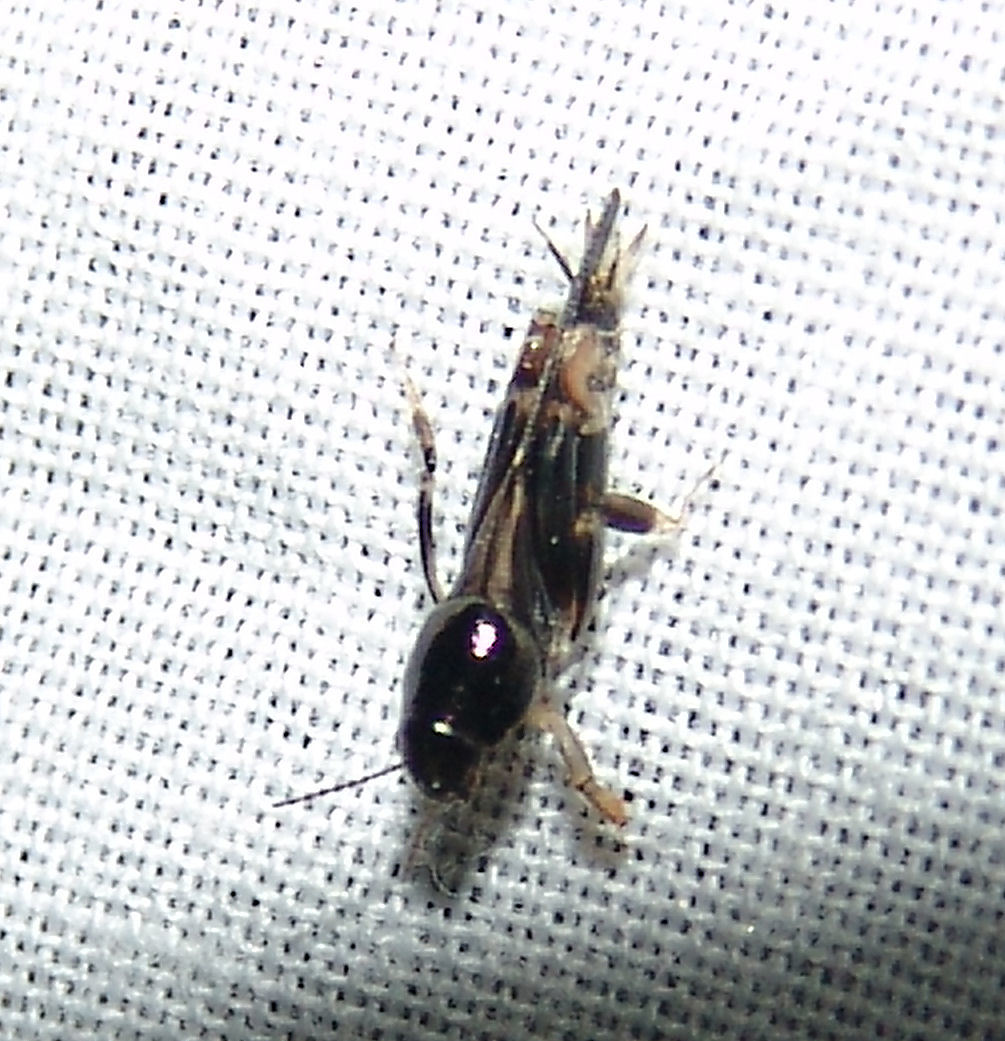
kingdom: Animalia
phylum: Arthropoda
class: Insecta
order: Orthoptera
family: Tridactylidae
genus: Neotridactylus
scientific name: Neotridactylus apicialis
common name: Larger pygmy locust
